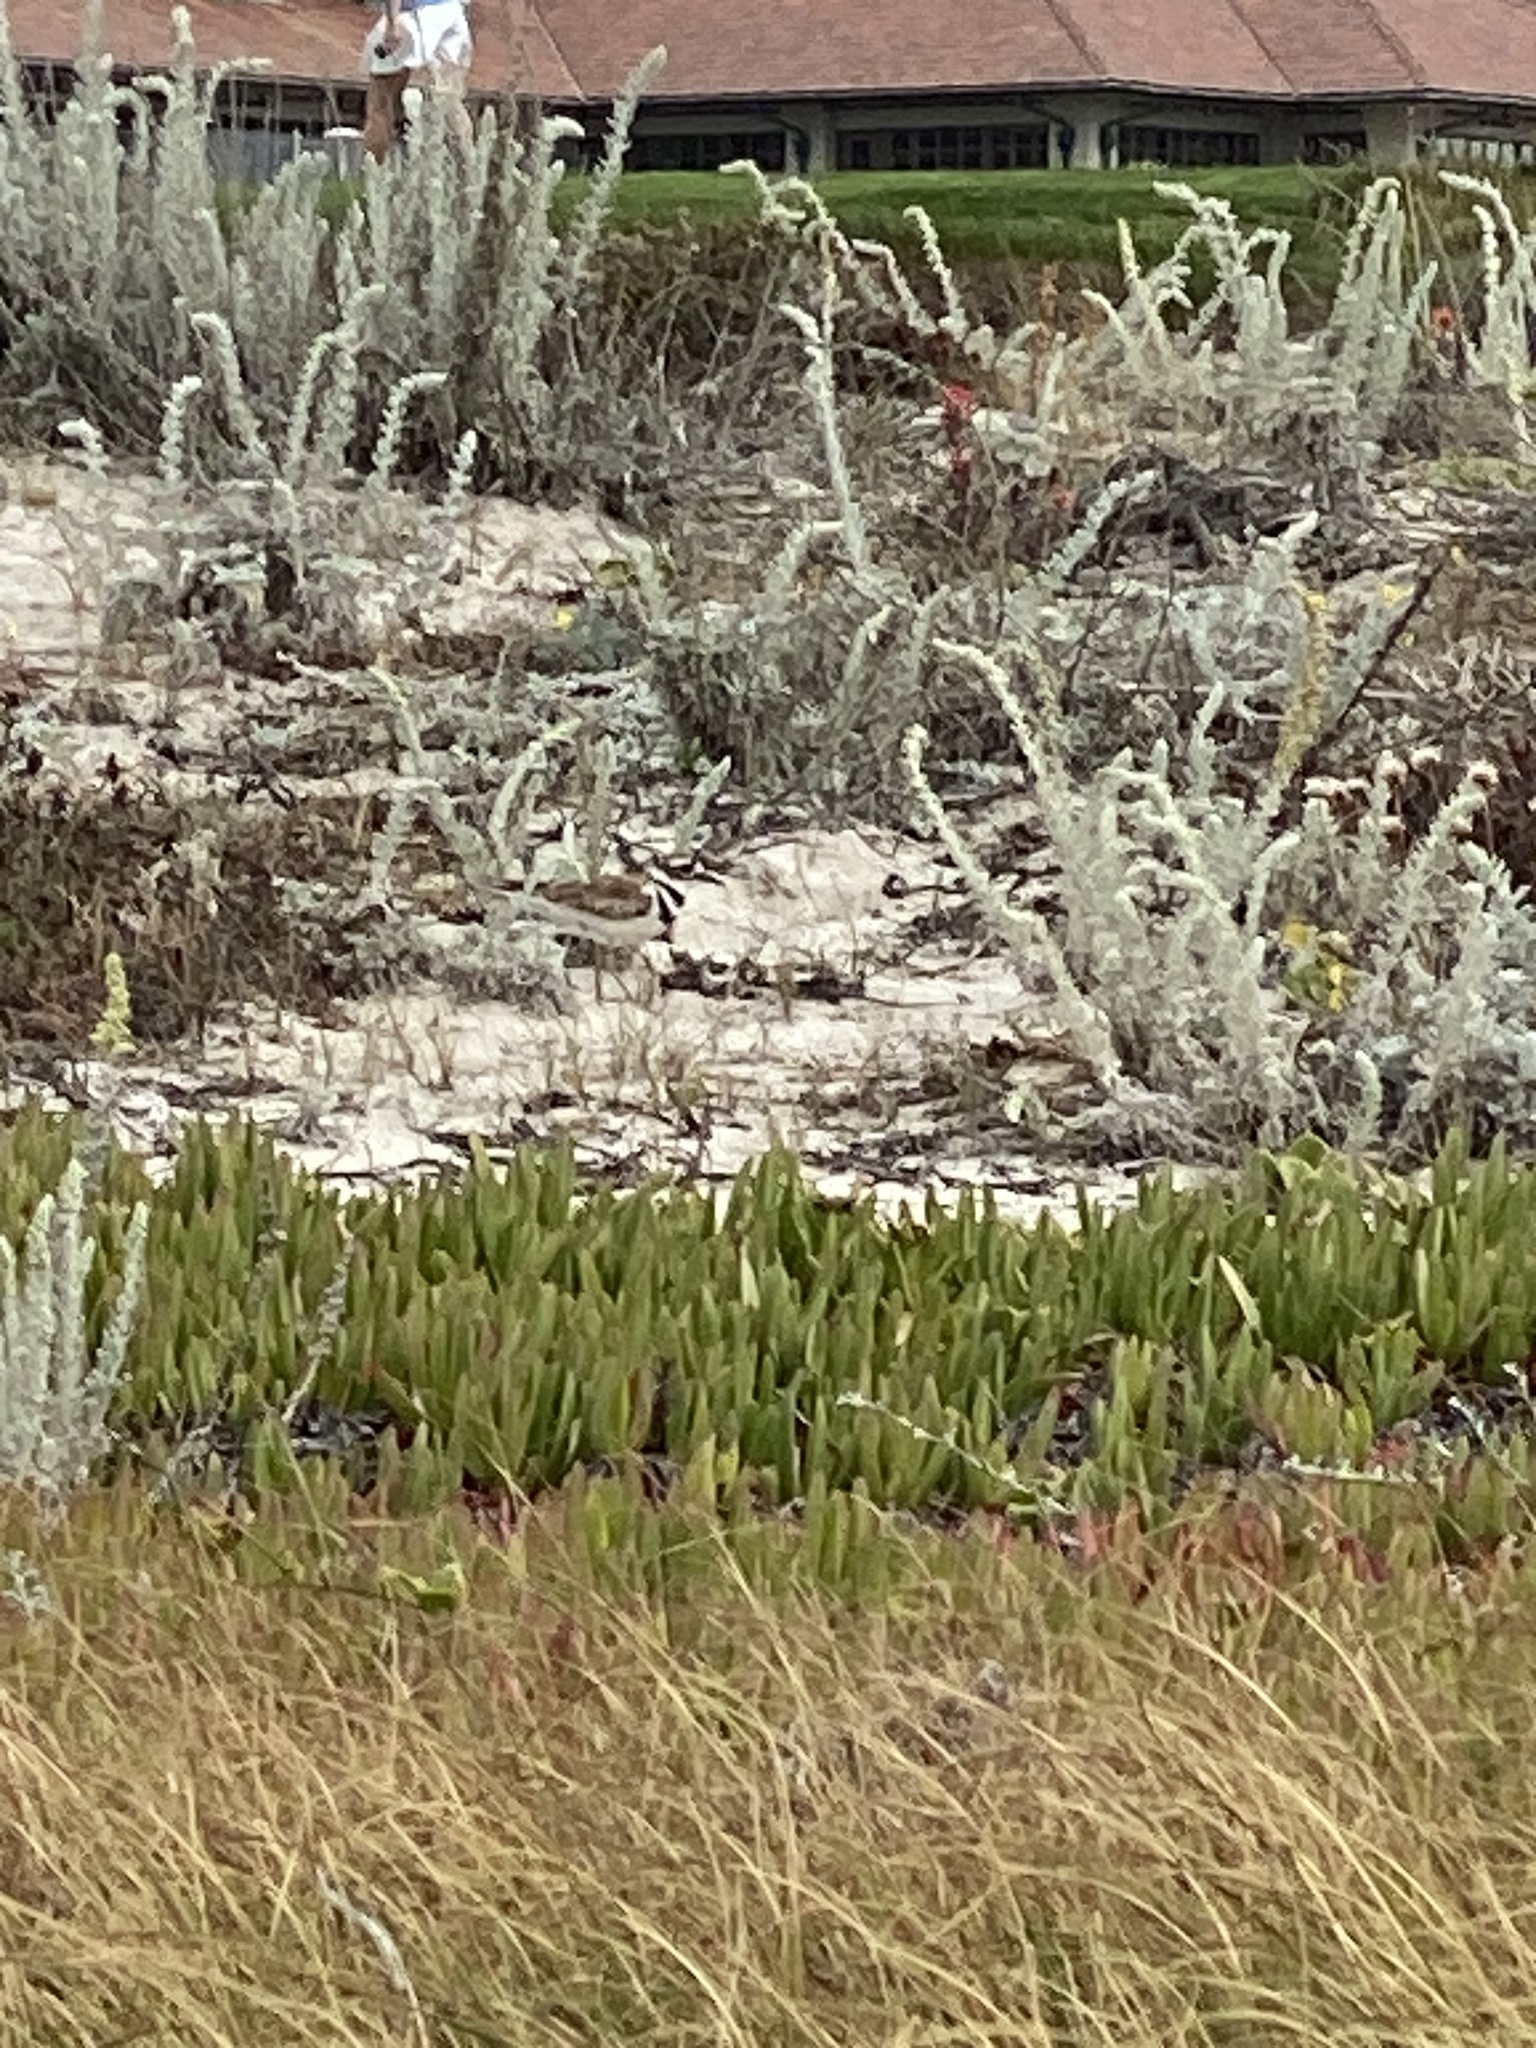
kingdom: Animalia
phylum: Chordata
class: Aves
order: Charadriiformes
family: Charadriidae
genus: Charadrius
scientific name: Charadrius vociferus
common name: Killdeer
